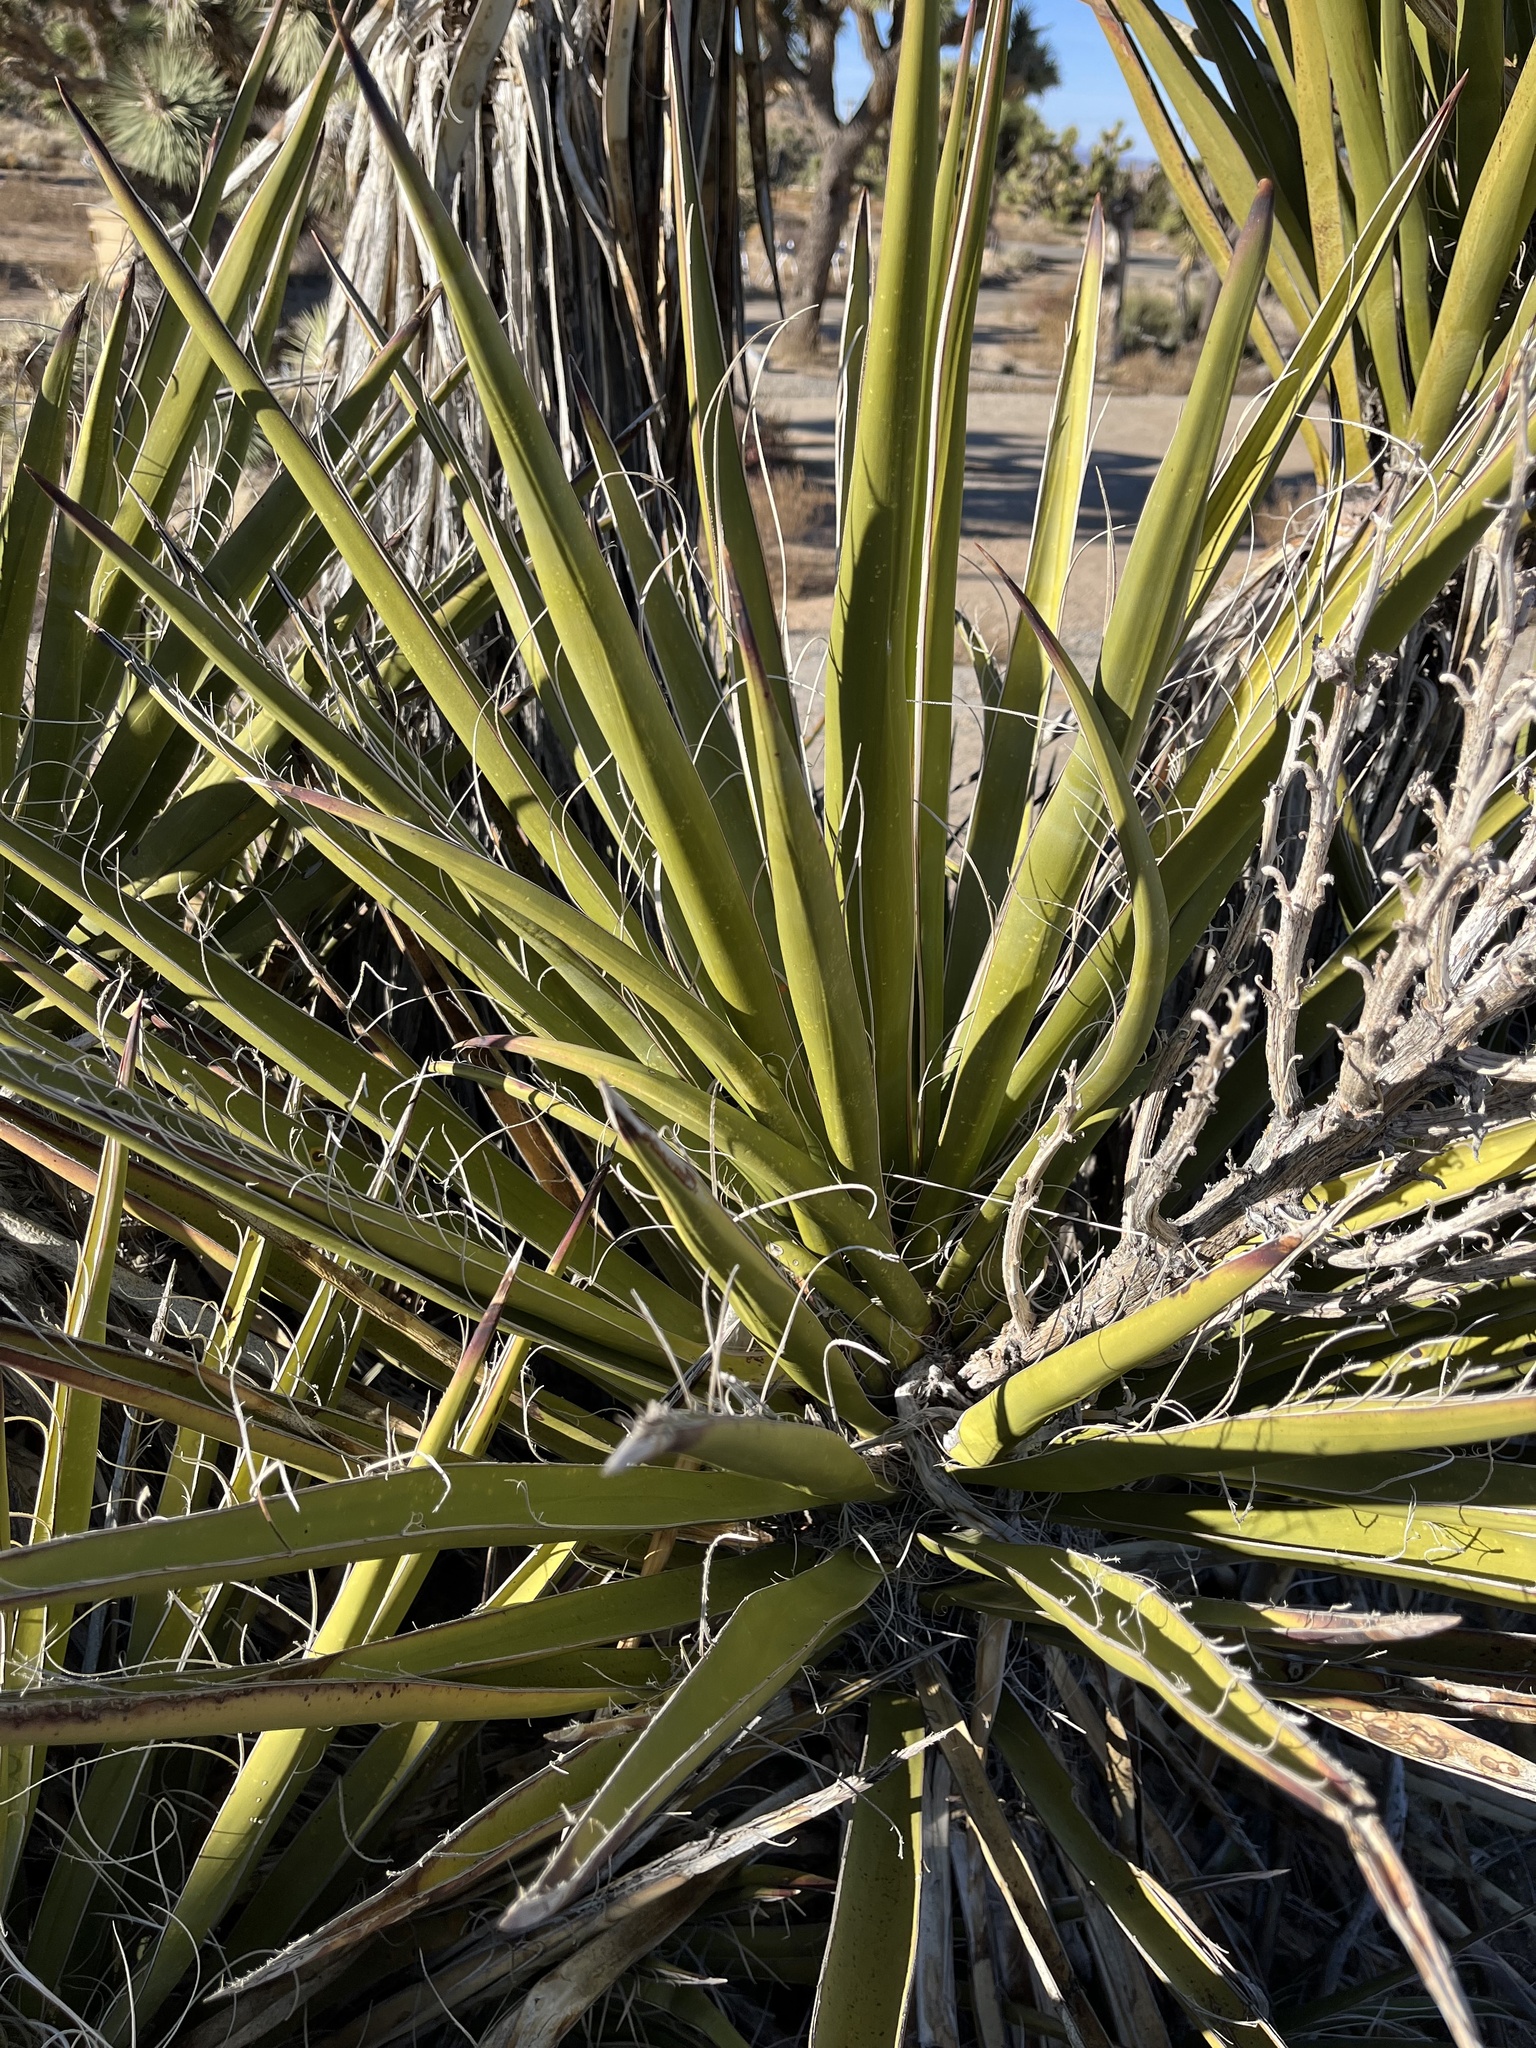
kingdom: Plantae
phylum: Tracheophyta
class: Liliopsida
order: Asparagales
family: Asparagaceae
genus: Yucca
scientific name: Yucca schidigera
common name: Mojave yucca
